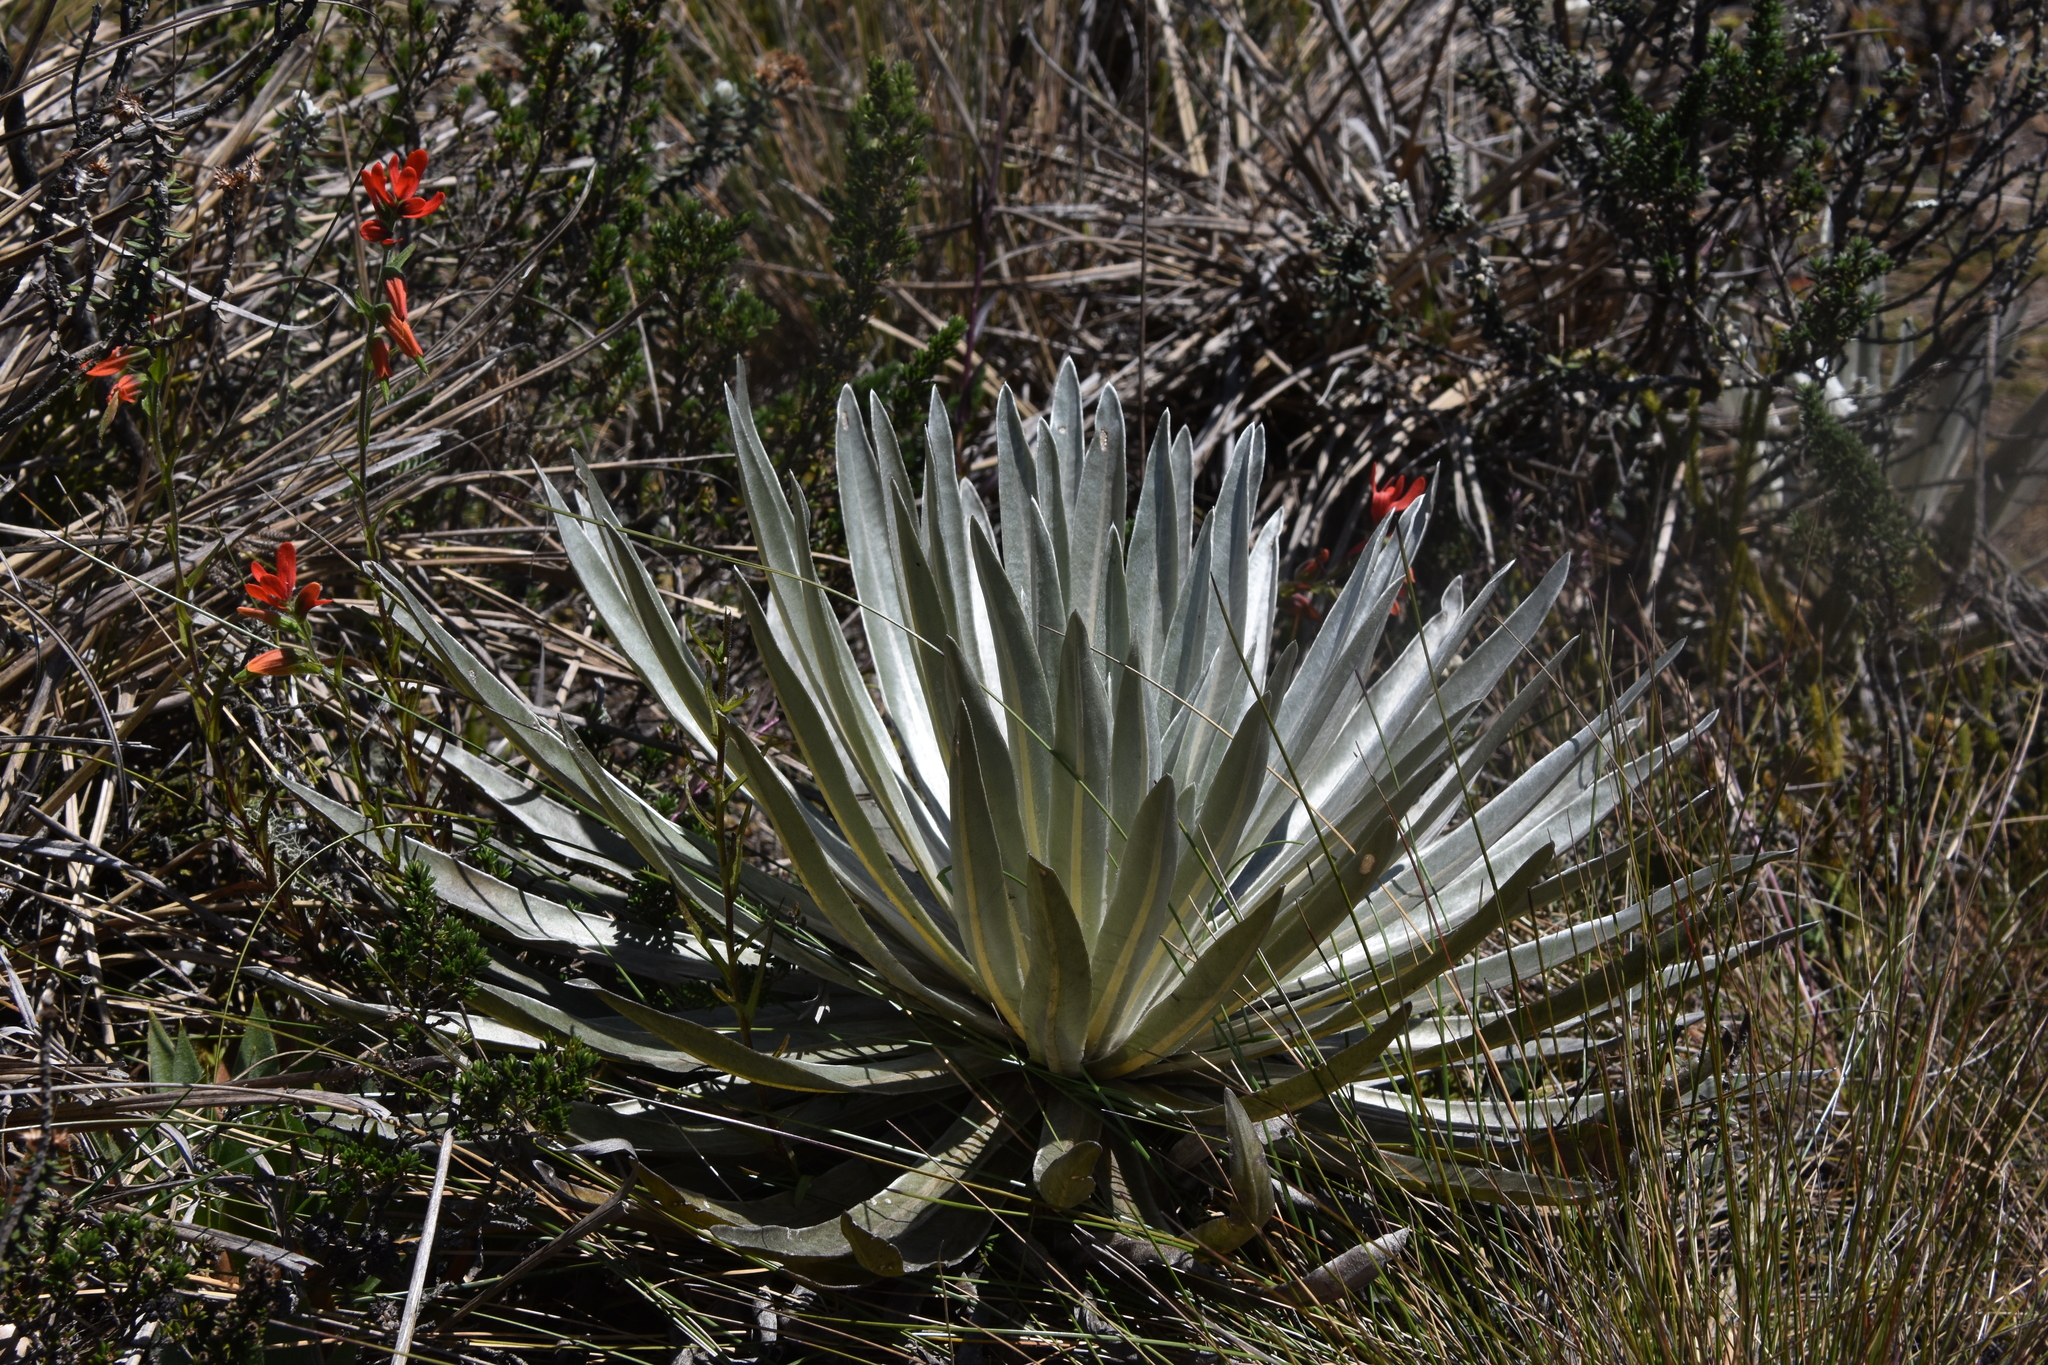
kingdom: Plantae
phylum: Tracheophyta
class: Magnoliopsida
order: Asterales
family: Asteraceae
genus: Espeletia
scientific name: Espeletia argentea
